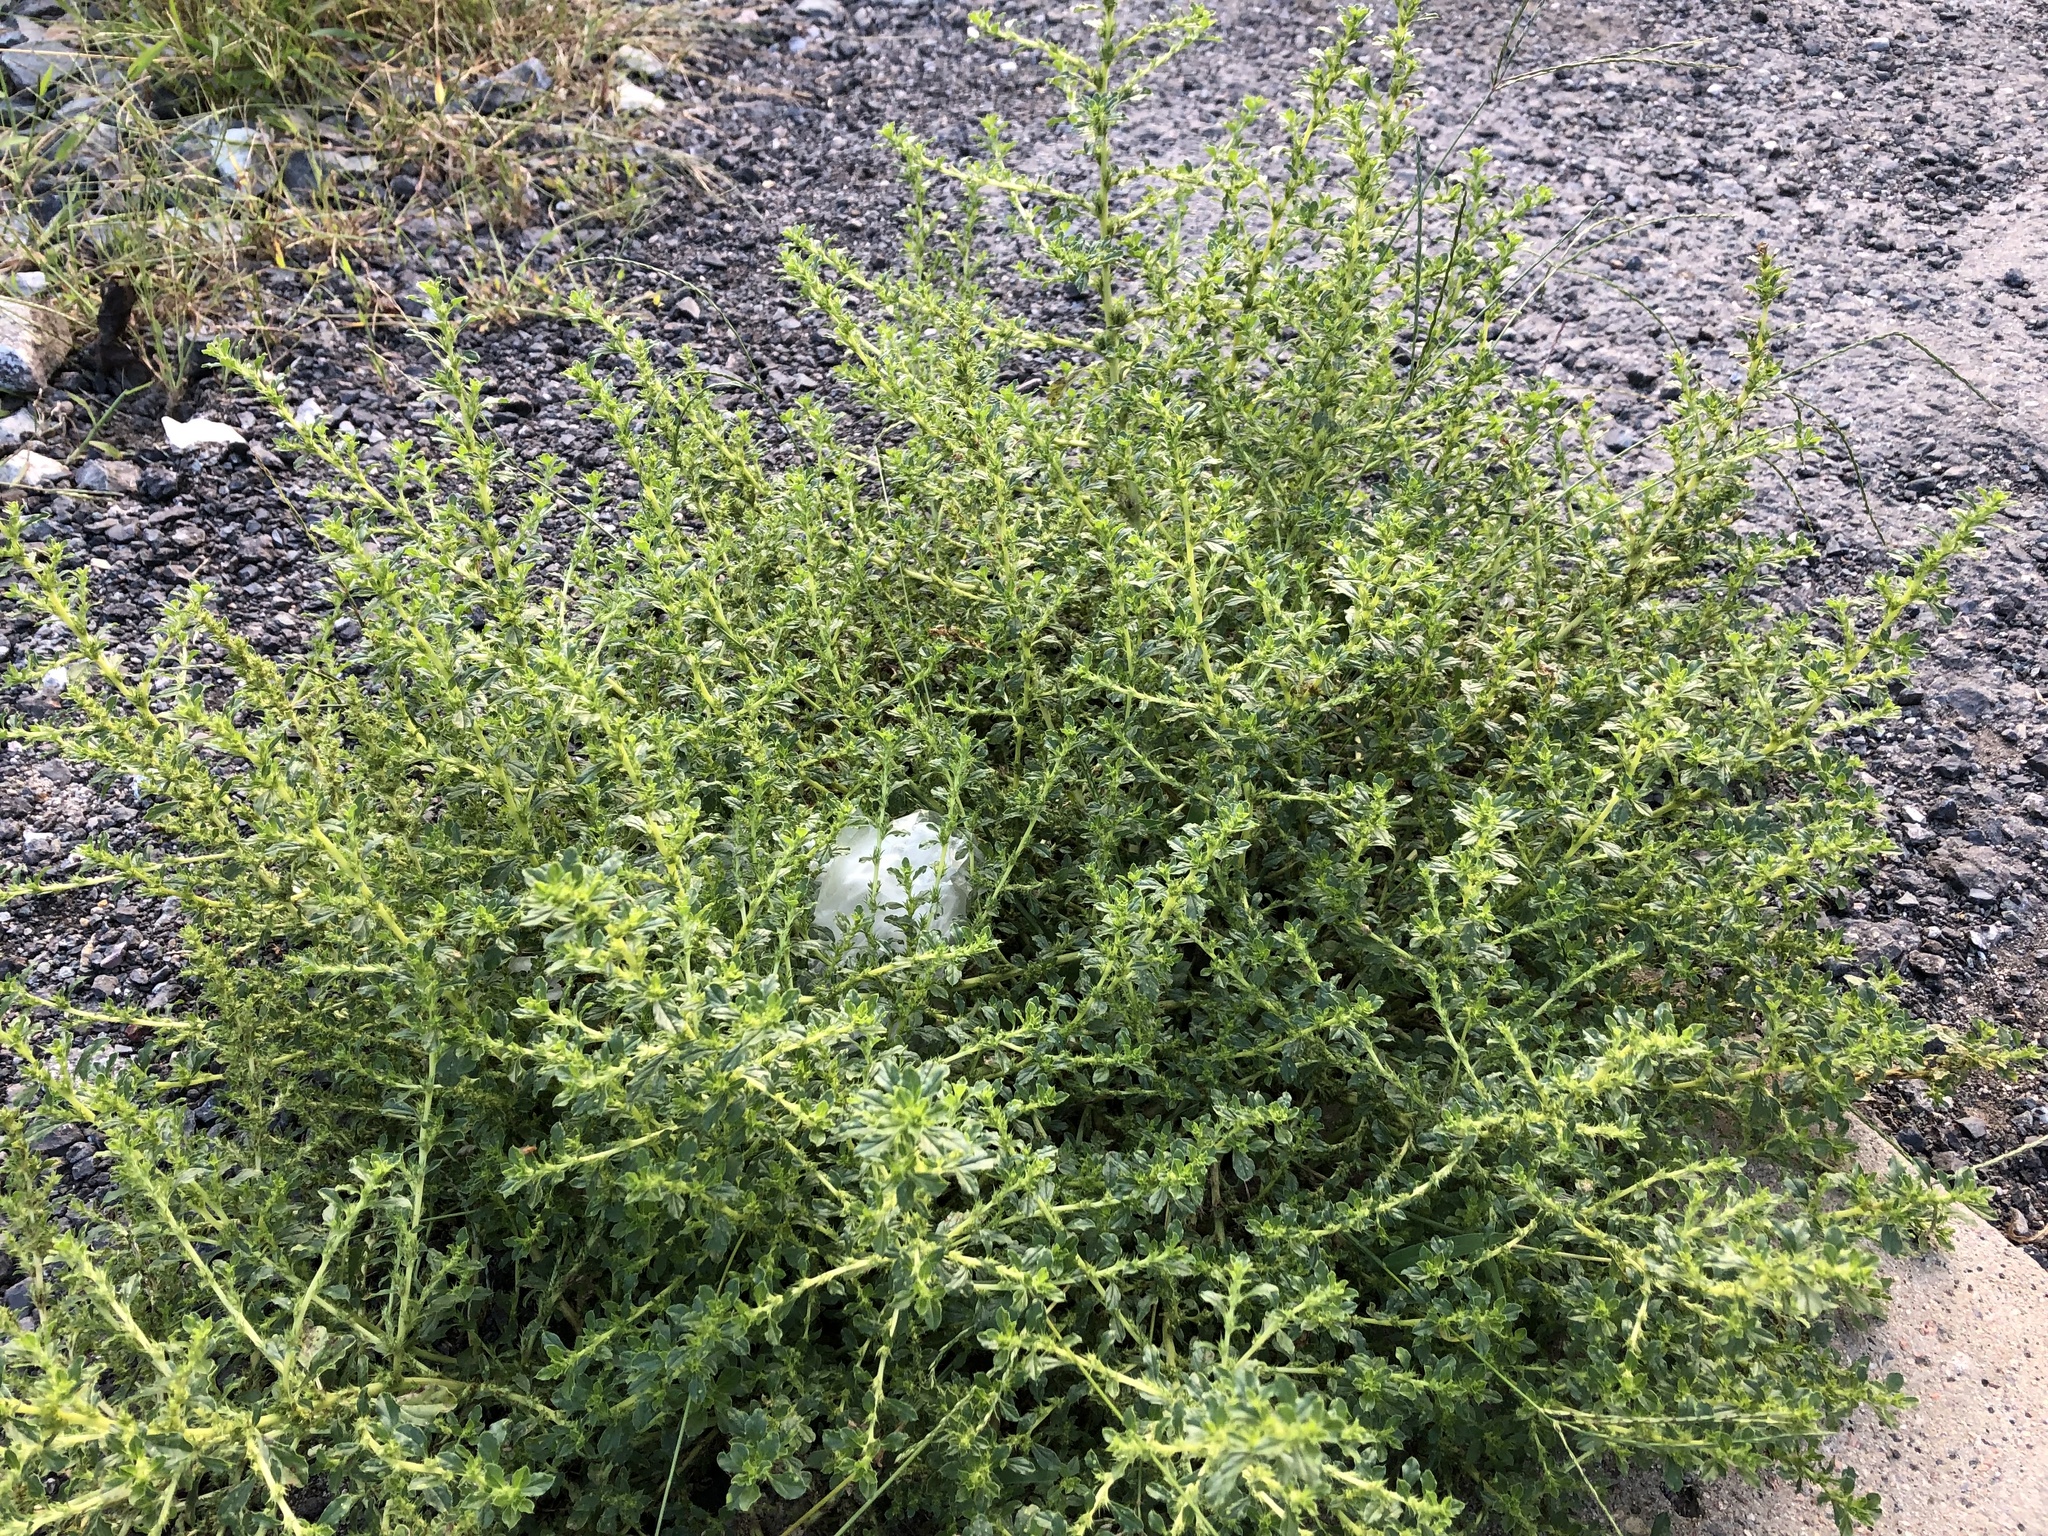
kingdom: Plantae
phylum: Tracheophyta
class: Magnoliopsida
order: Caryophyllales
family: Amaranthaceae
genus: Amaranthus
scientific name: Amaranthus albus
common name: White pigweed
